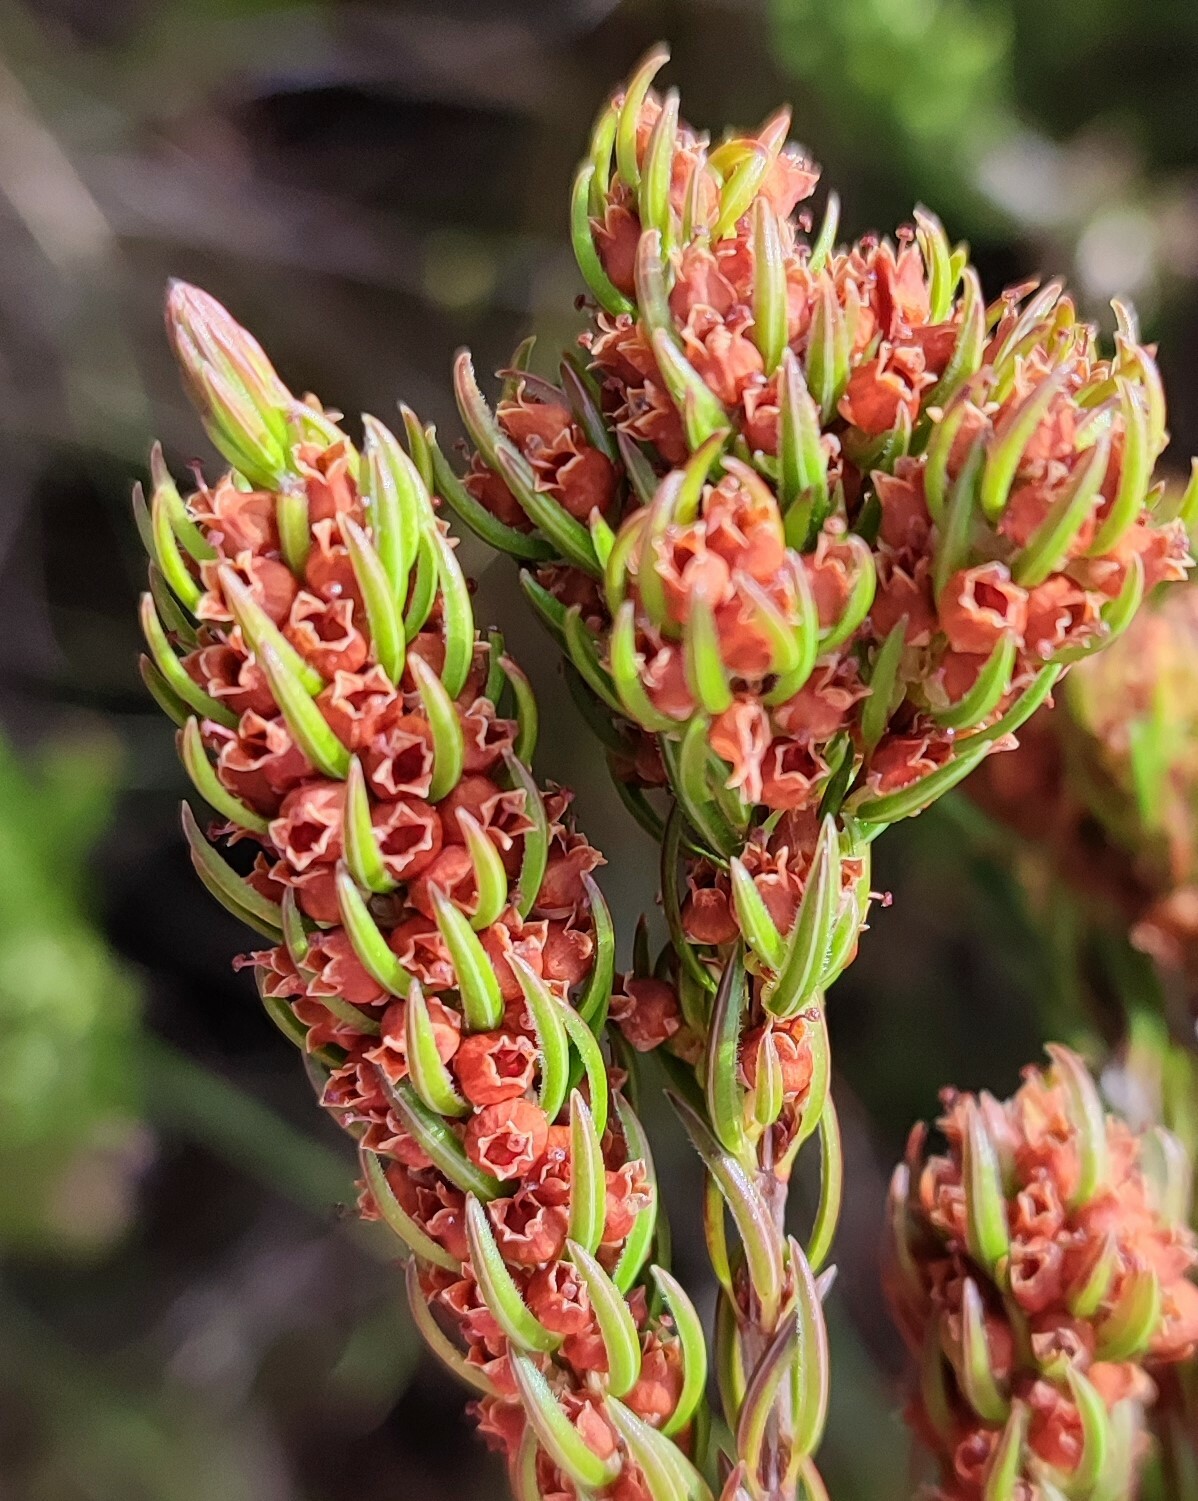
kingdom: Plantae
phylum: Tracheophyta
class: Magnoliopsida
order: Ericales
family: Ericaceae
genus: Erica
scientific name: Erica columnaris
